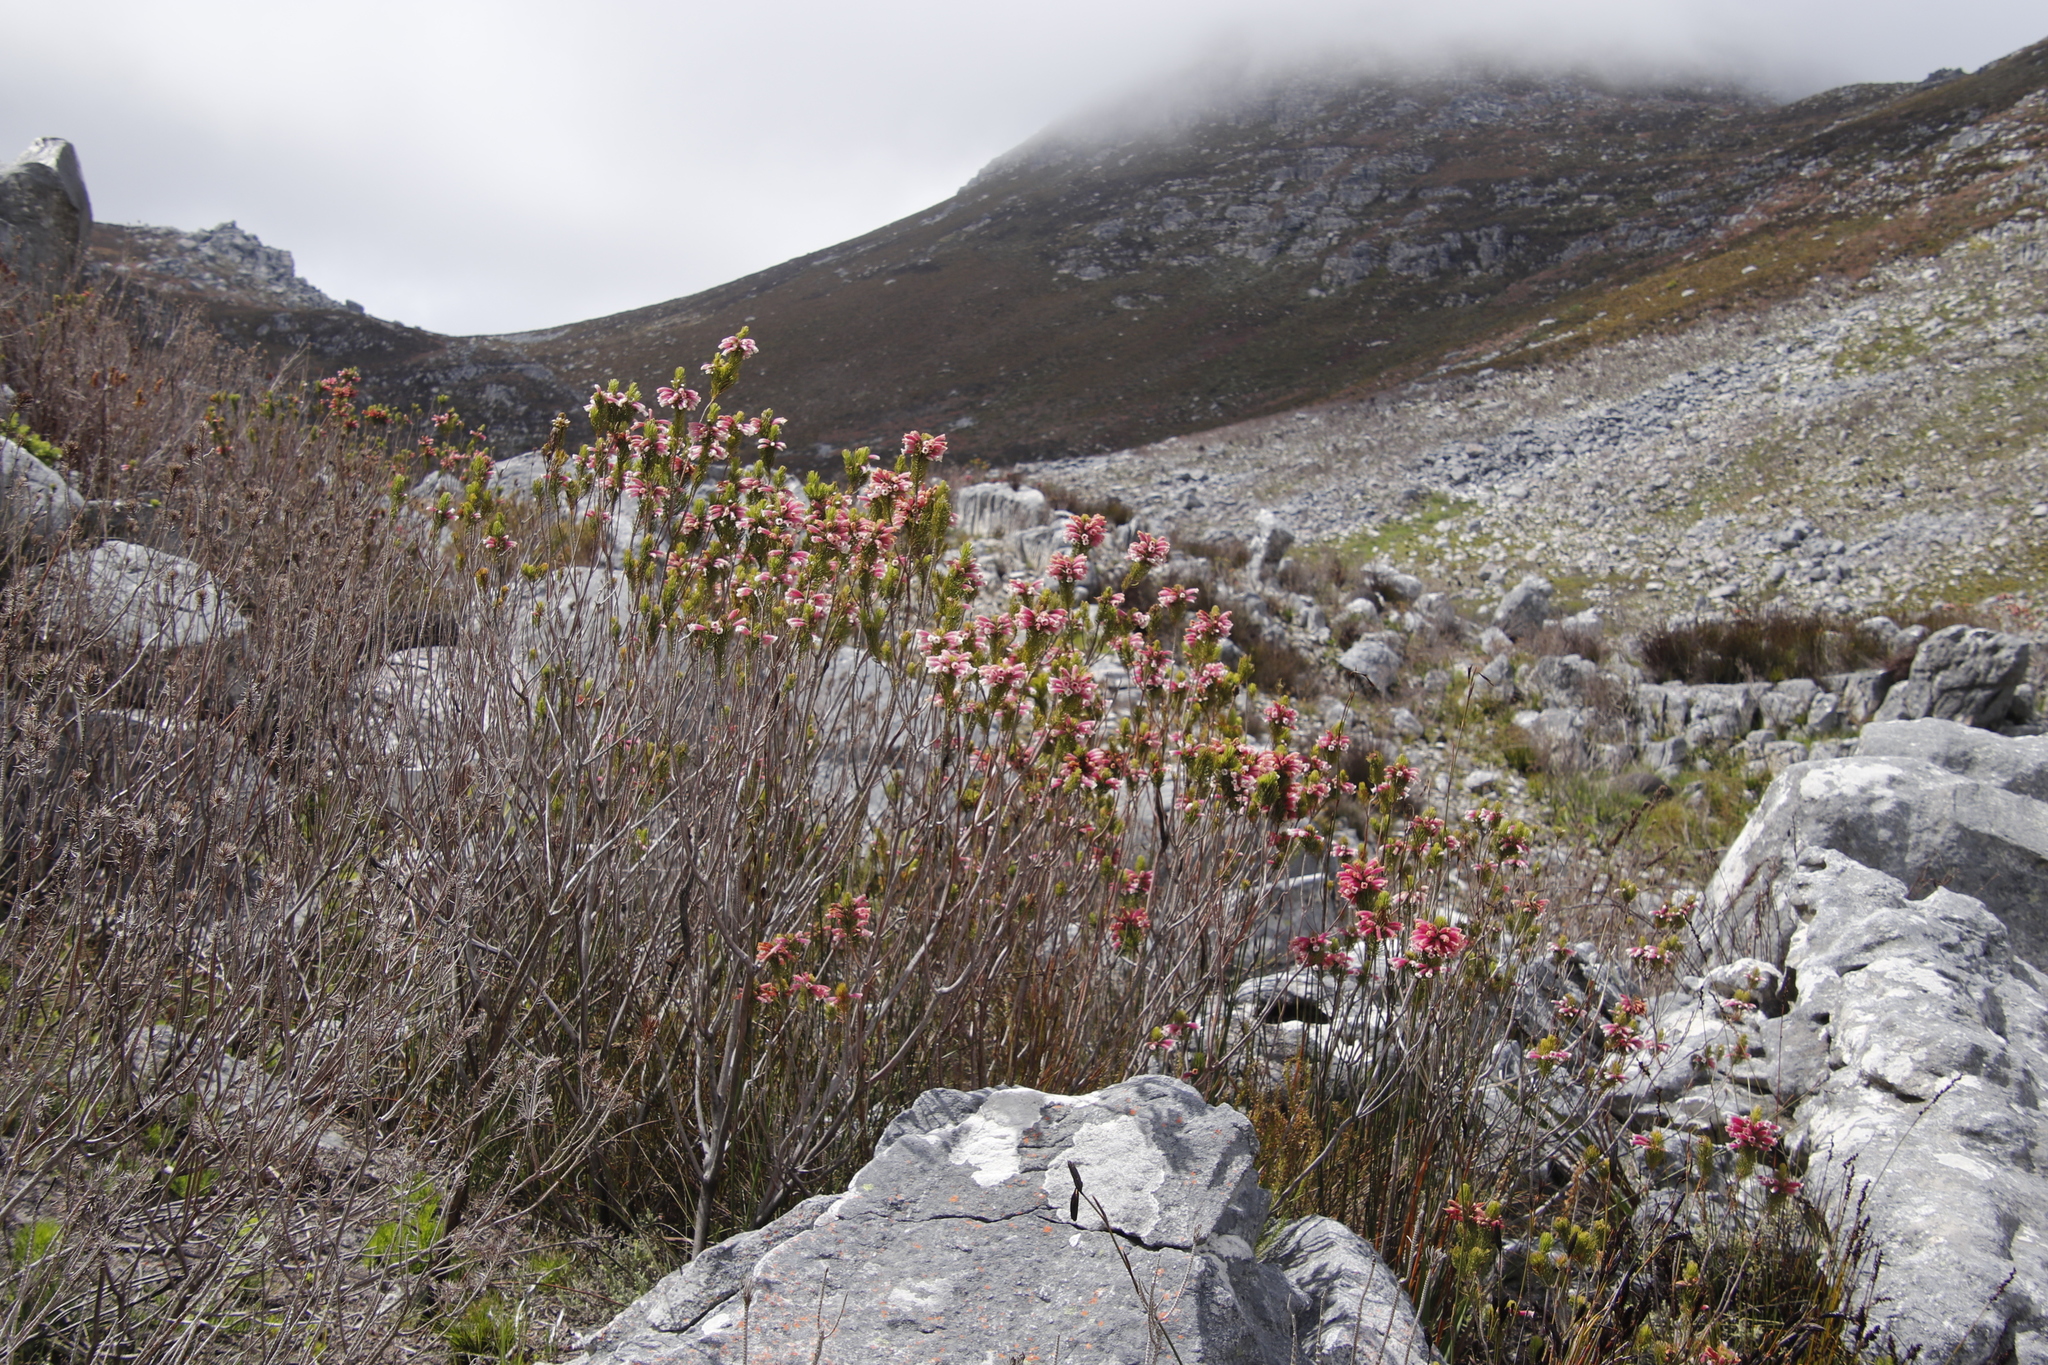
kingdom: Plantae
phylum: Tracheophyta
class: Magnoliopsida
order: Ericales
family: Ericaceae
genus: Erica
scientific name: Erica viscaria
